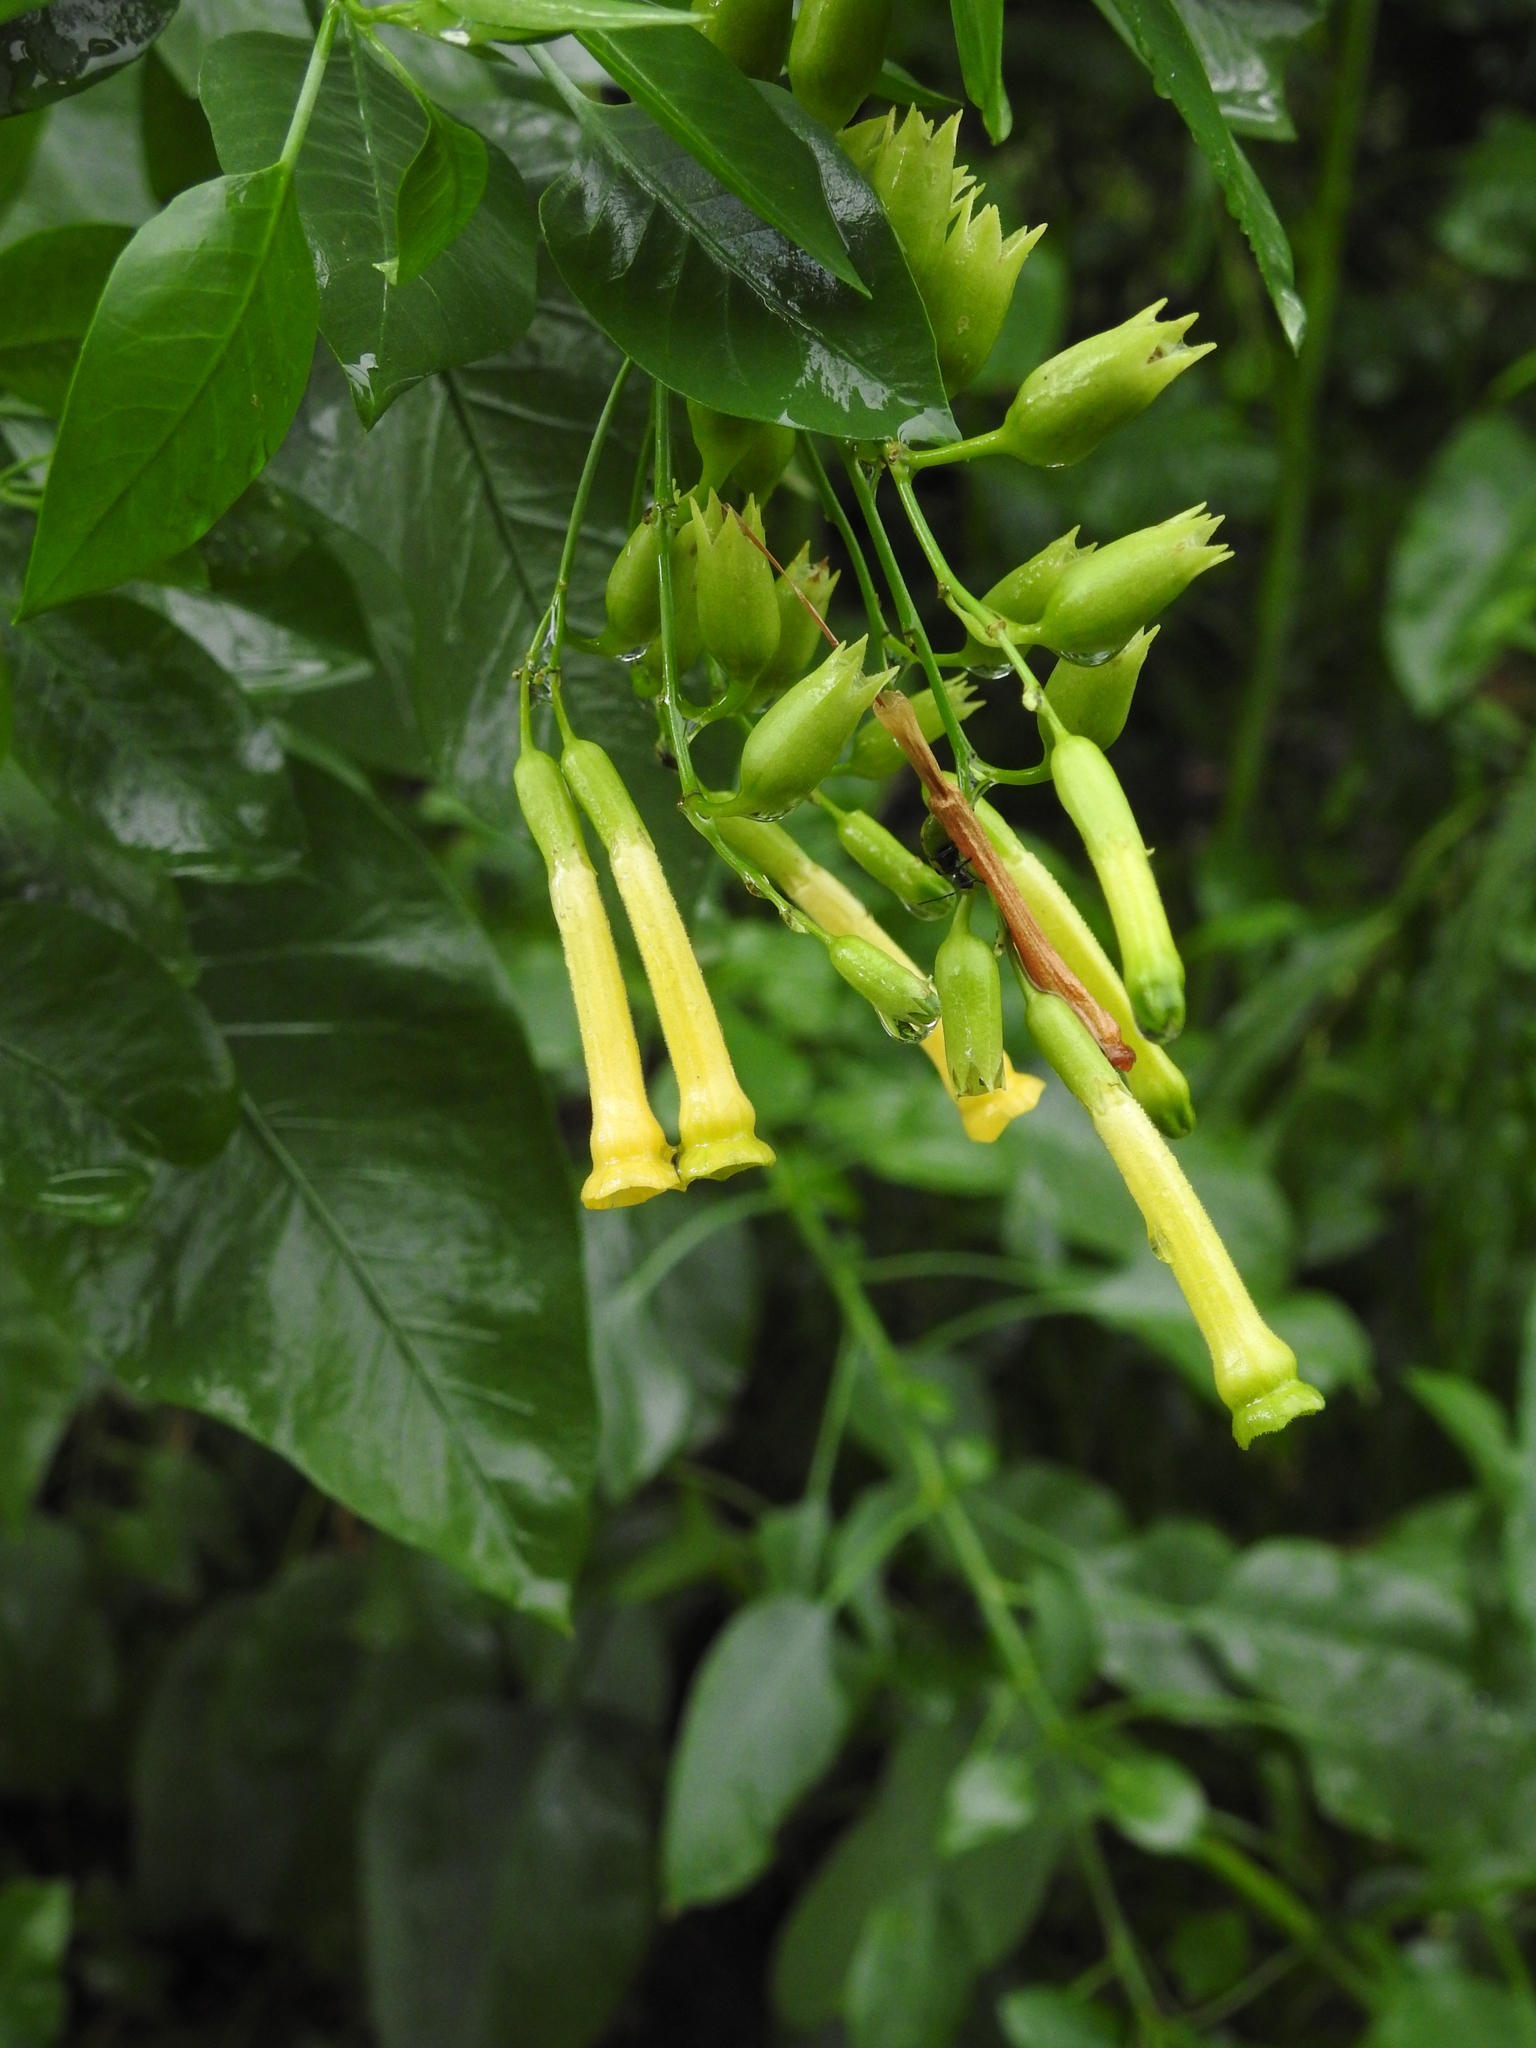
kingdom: Plantae
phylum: Tracheophyta
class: Magnoliopsida
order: Solanales
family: Solanaceae
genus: Nicotiana
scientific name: Nicotiana glauca
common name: Tree tobacco
